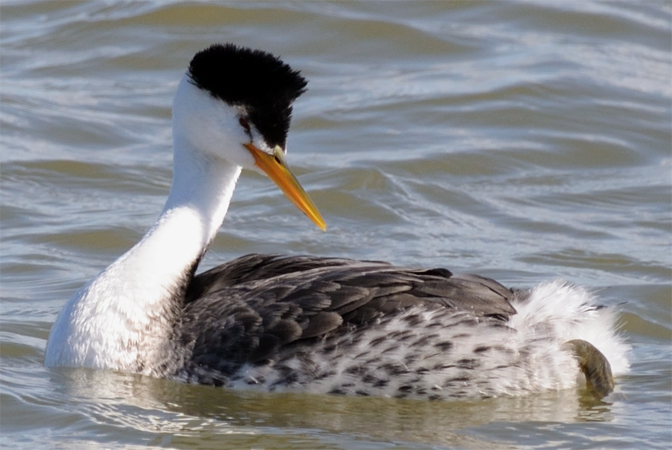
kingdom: Animalia
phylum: Chordata
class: Aves
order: Podicipediformes
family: Podicipedidae
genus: Aechmophorus
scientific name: Aechmophorus clarkii
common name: Clark's grebe
